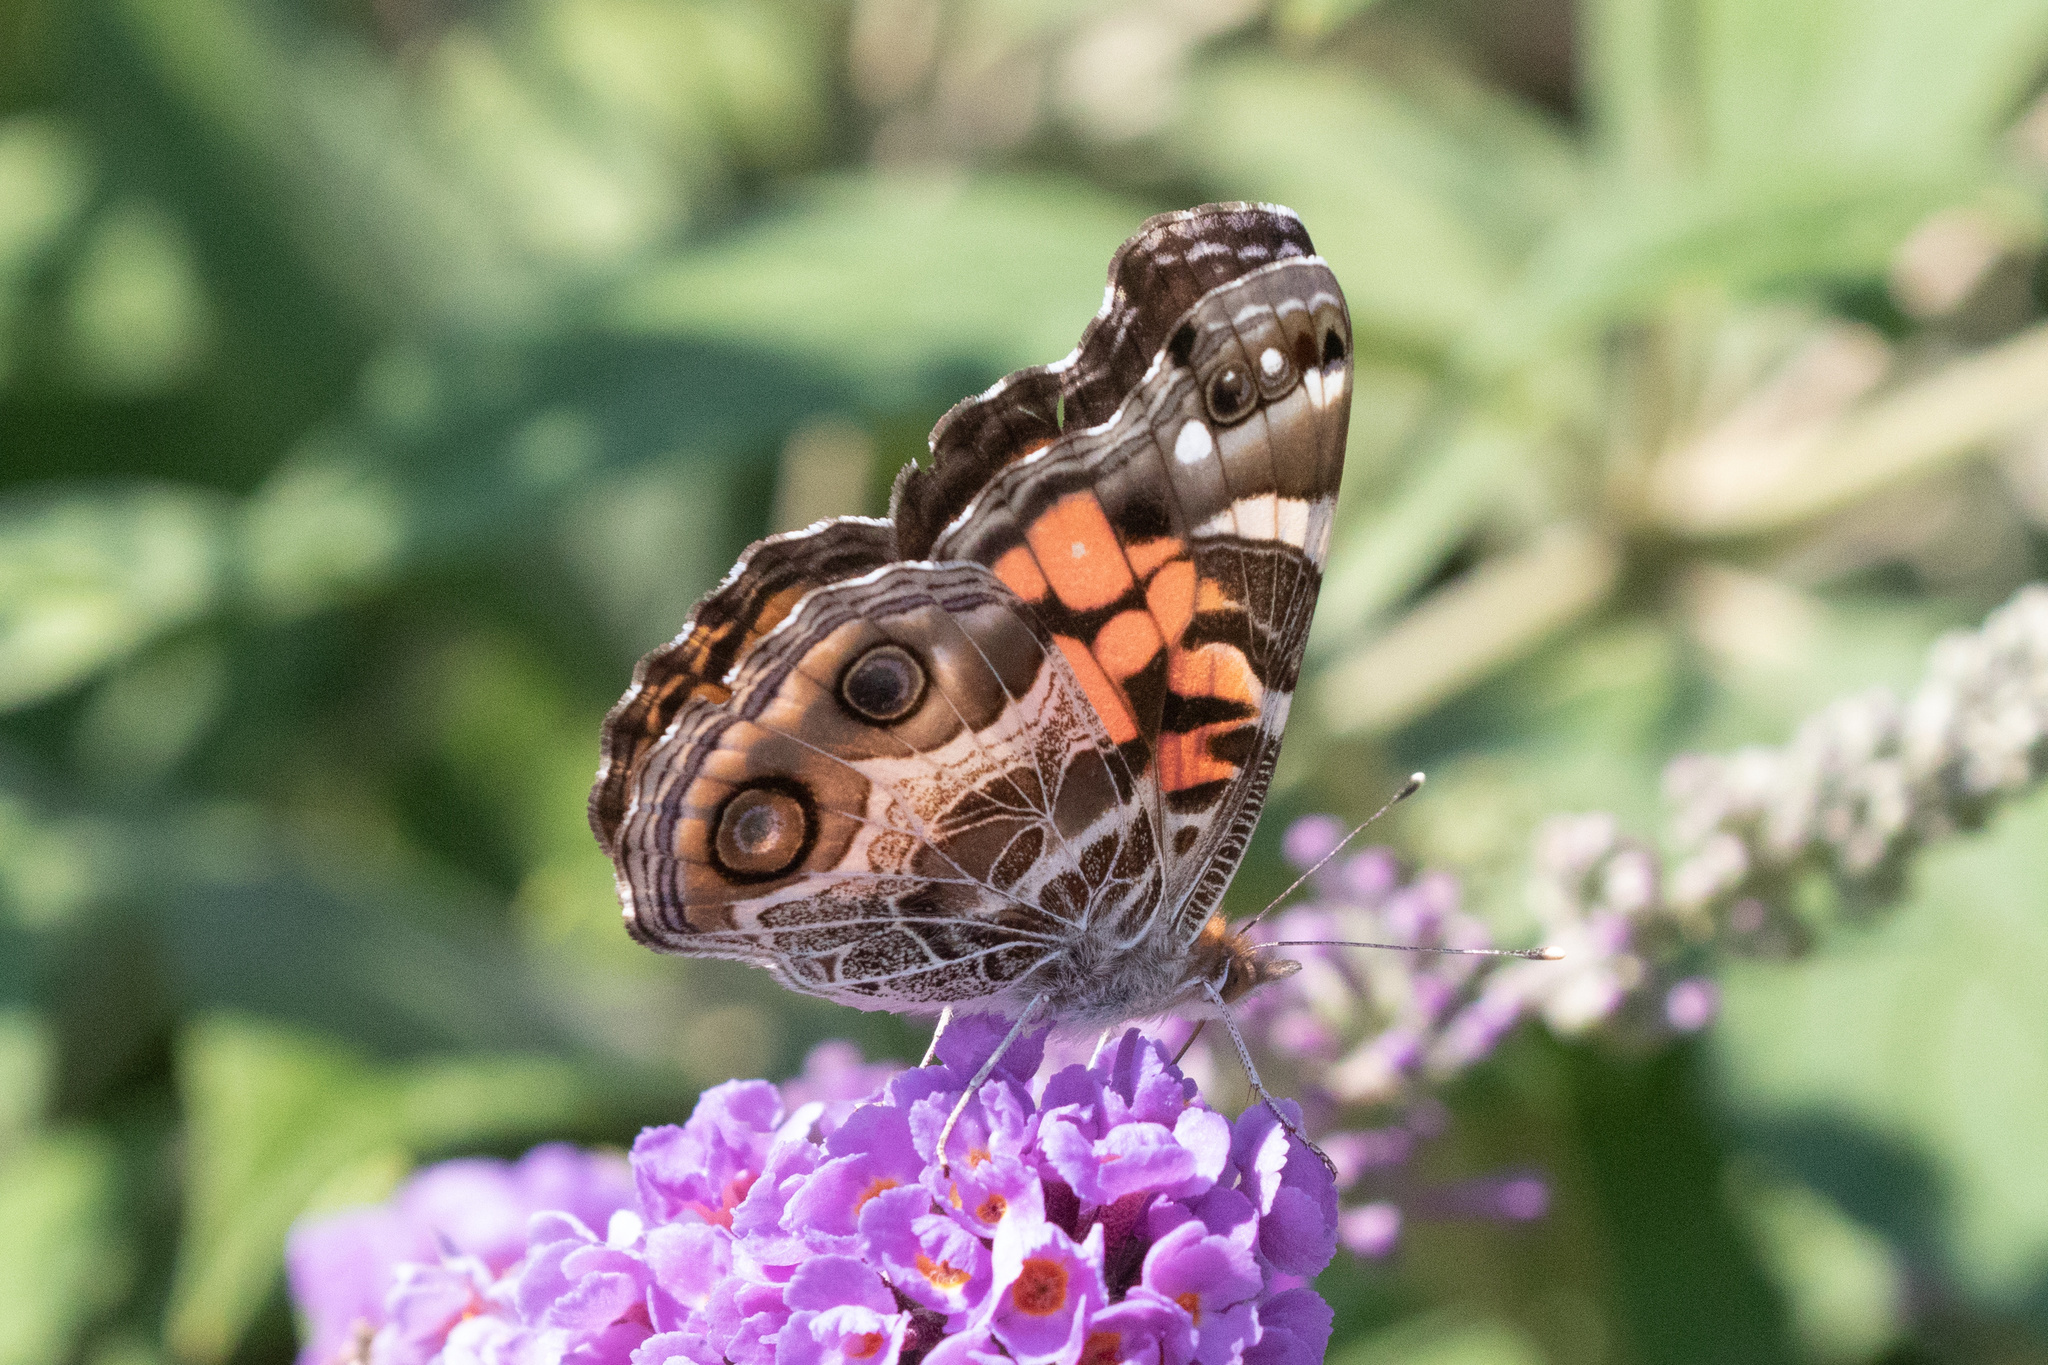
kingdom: Animalia
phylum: Arthropoda
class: Insecta
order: Lepidoptera
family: Nymphalidae
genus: Vanessa
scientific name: Vanessa virginiensis
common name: American lady
